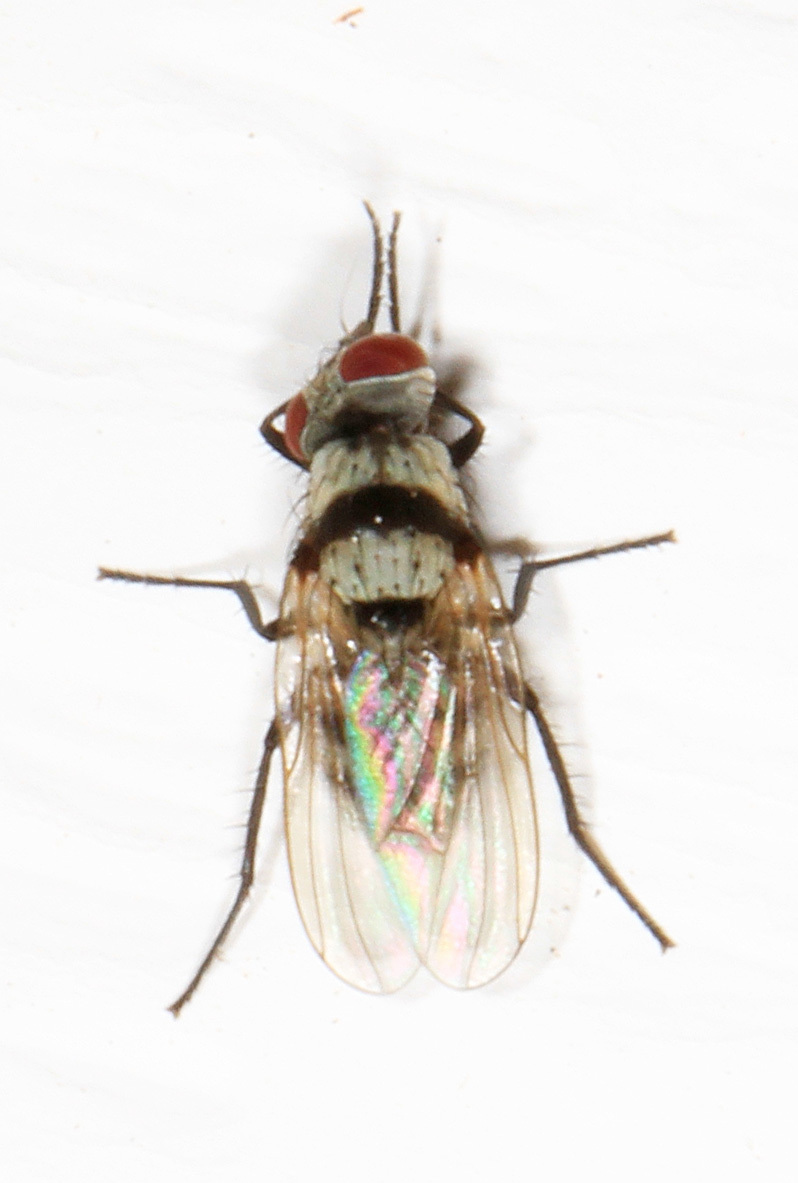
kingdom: Animalia
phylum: Arthropoda
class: Insecta
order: Diptera
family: Anthomyiidae
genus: Anthomyia
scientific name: Anthomyia illocata
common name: Fly
